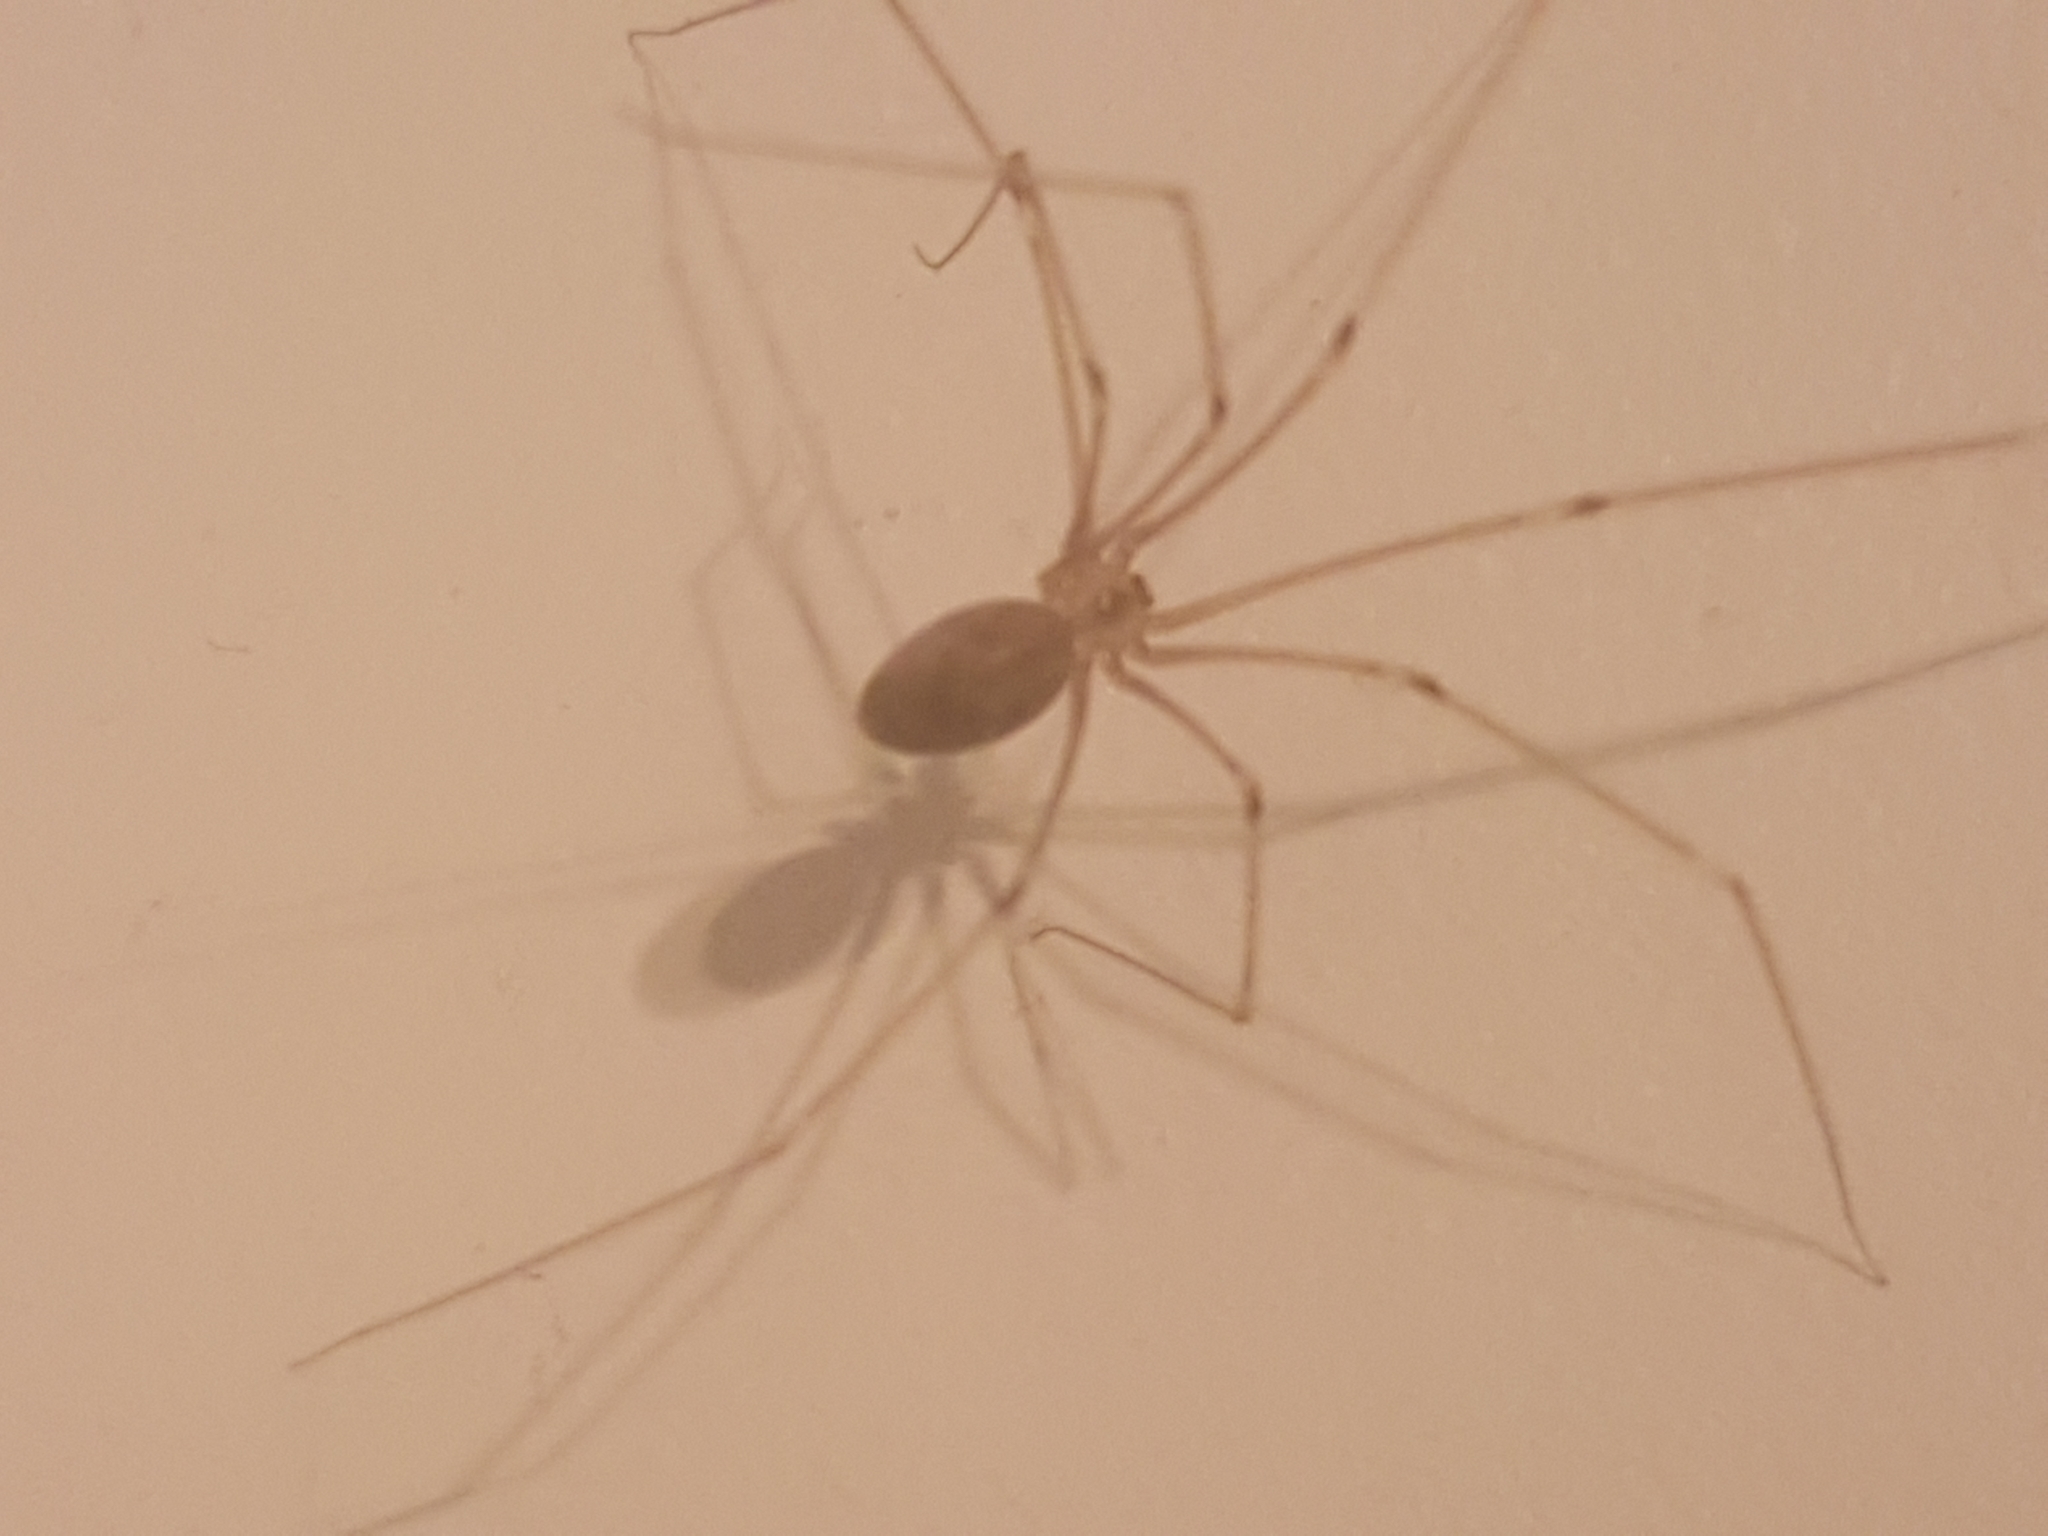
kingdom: Animalia
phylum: Arthropoda
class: Arachnida
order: Araneae
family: Pholcidae
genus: Pholcus
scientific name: Pholcus phalangioides
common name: Longbodied cellar spider
